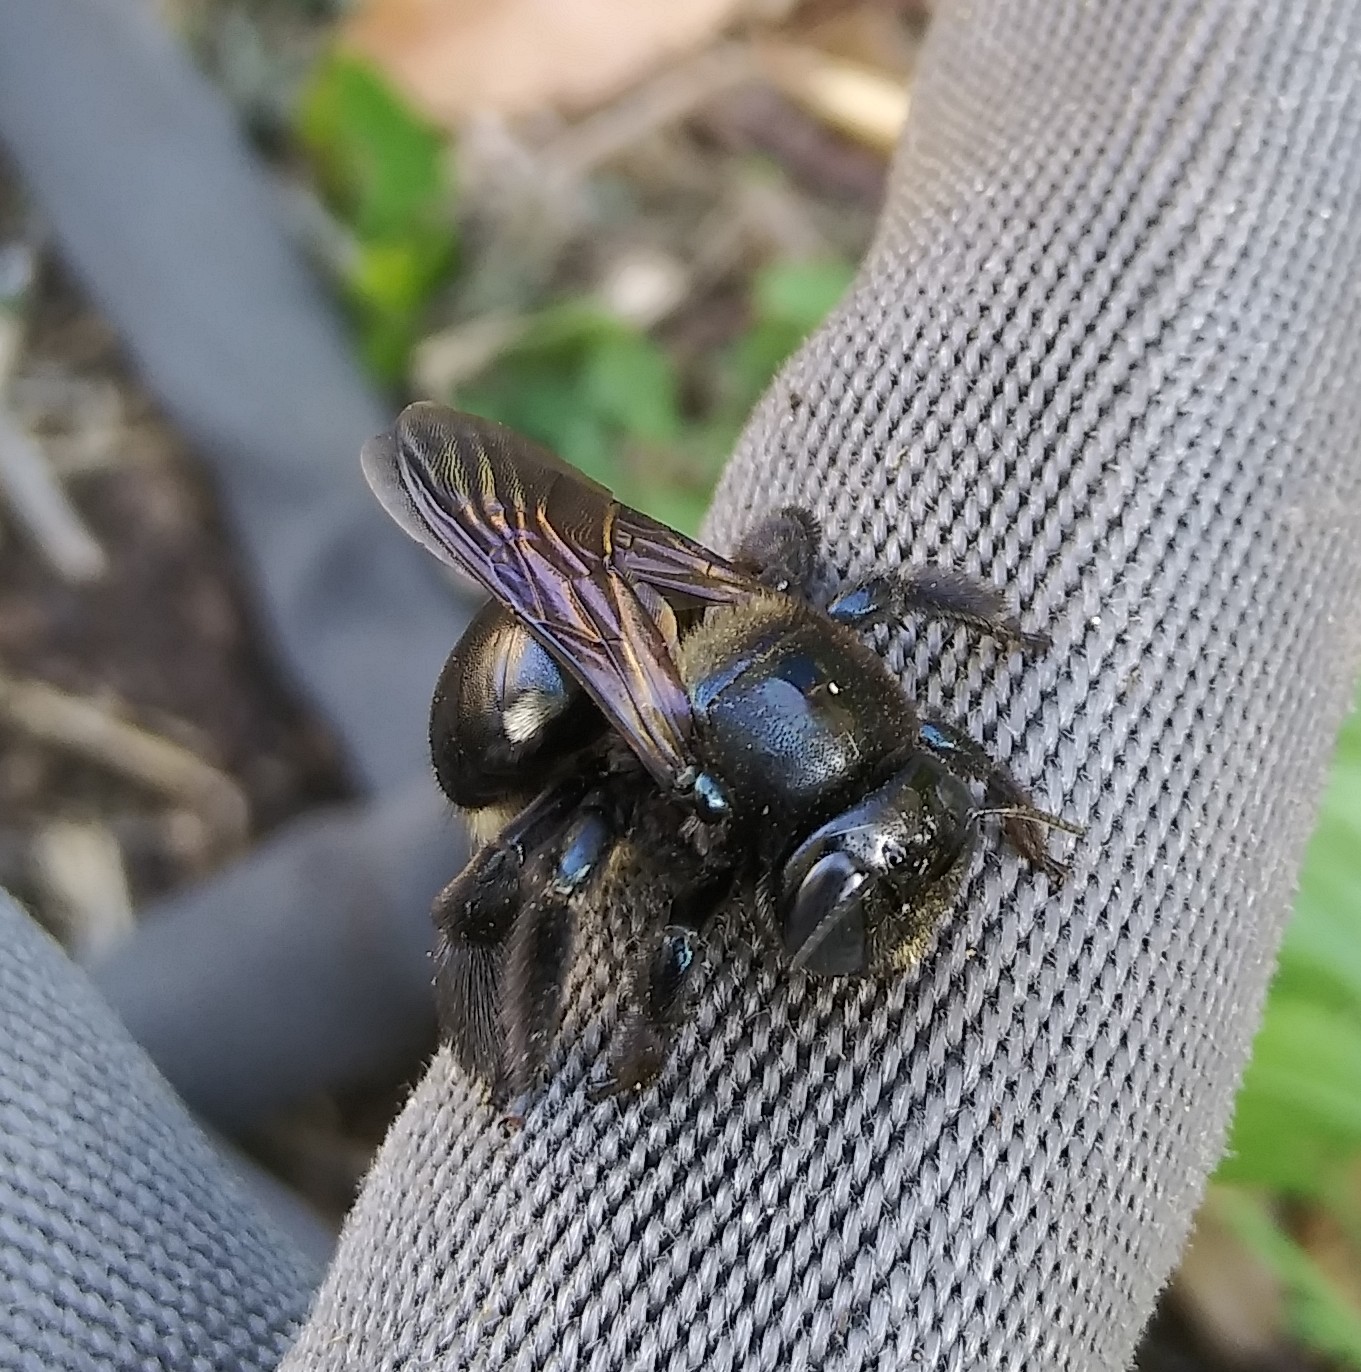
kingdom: Animalia
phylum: Arthropoda
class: Insecta
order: Hymenoptera
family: Apidae
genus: Xylocopa
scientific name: Xylocopa micans
